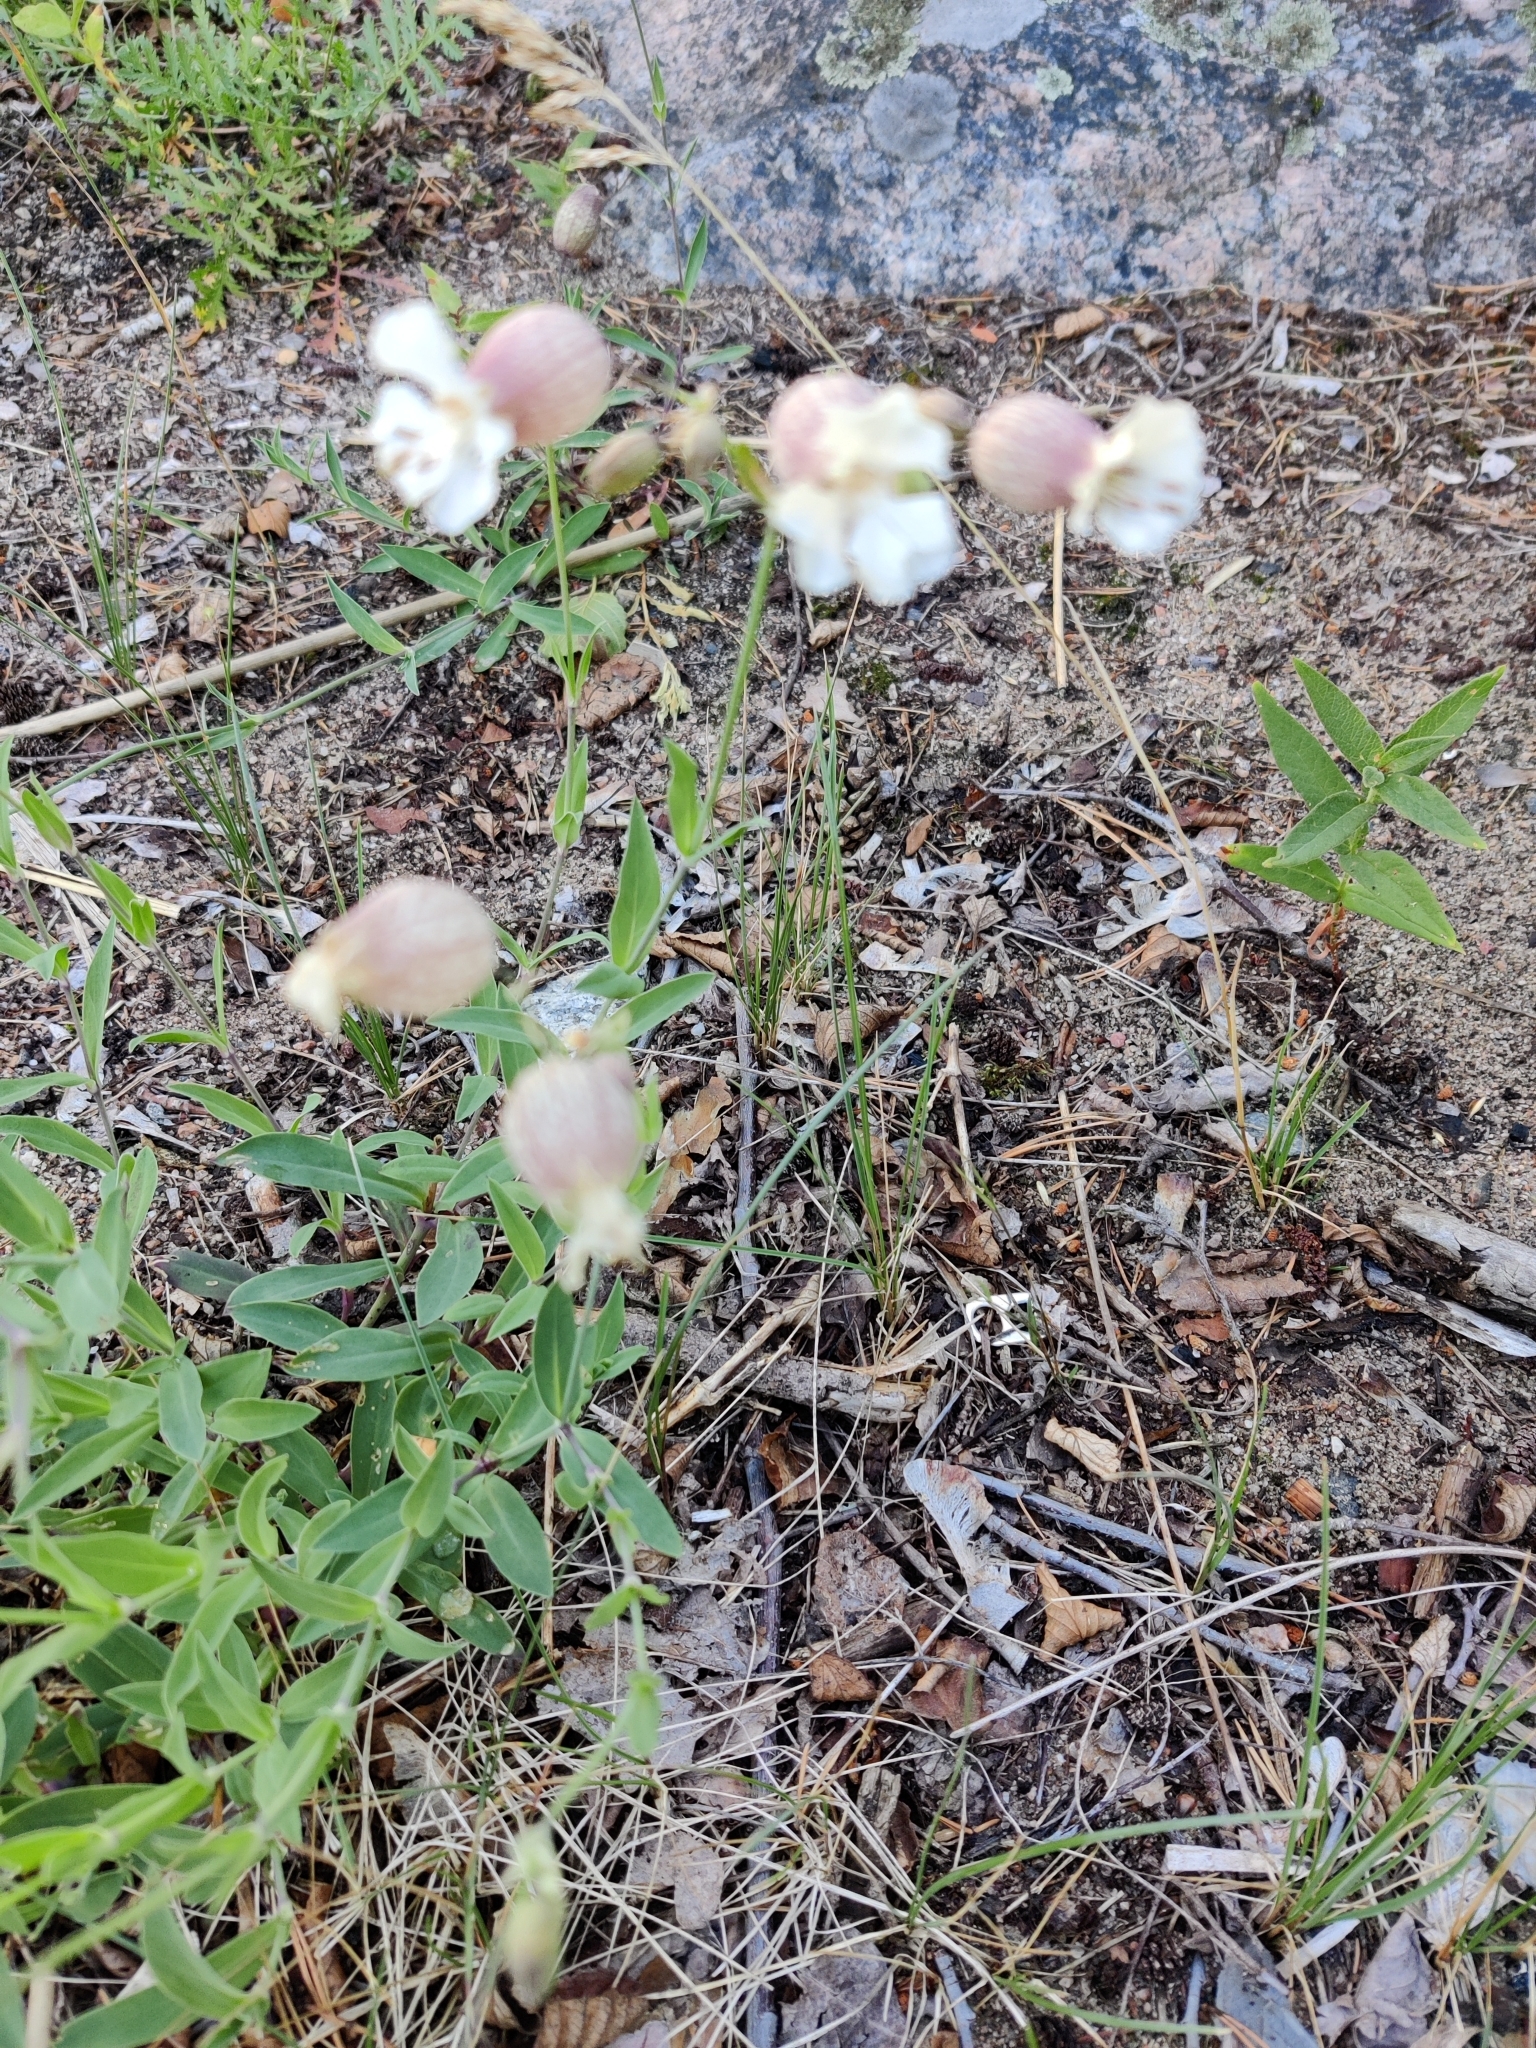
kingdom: Plantae
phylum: Tracheophyta
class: Magnoliopsida
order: Caryophyllales
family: Caryophyllaceae
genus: Silene
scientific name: Silene vulgaris
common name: Bladder campion
